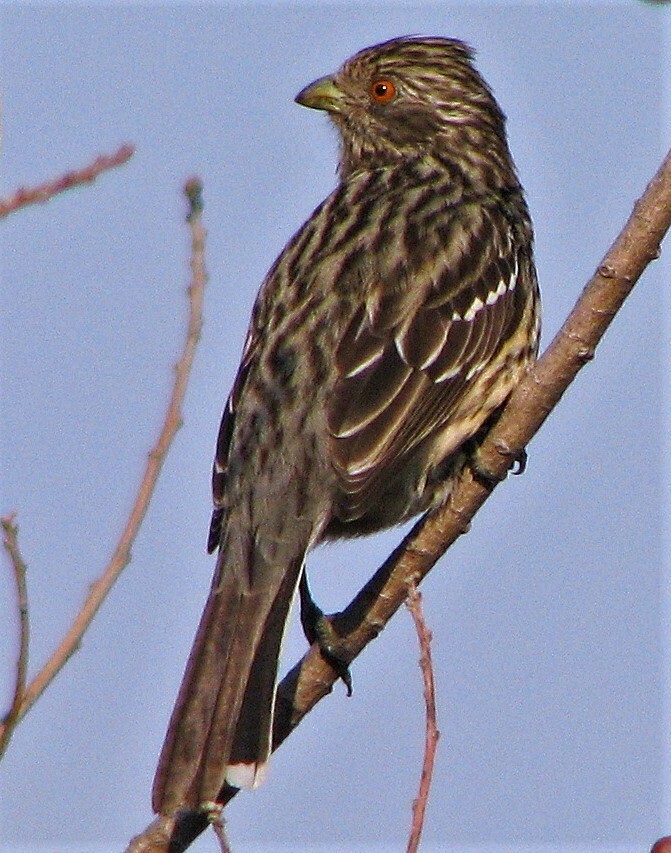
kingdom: Animalia
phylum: Chordata
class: Aves
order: Passeriformes
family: Cotingidae
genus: Phytotoma
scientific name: Phytotoma rutila
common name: White-tipped plantcutter
